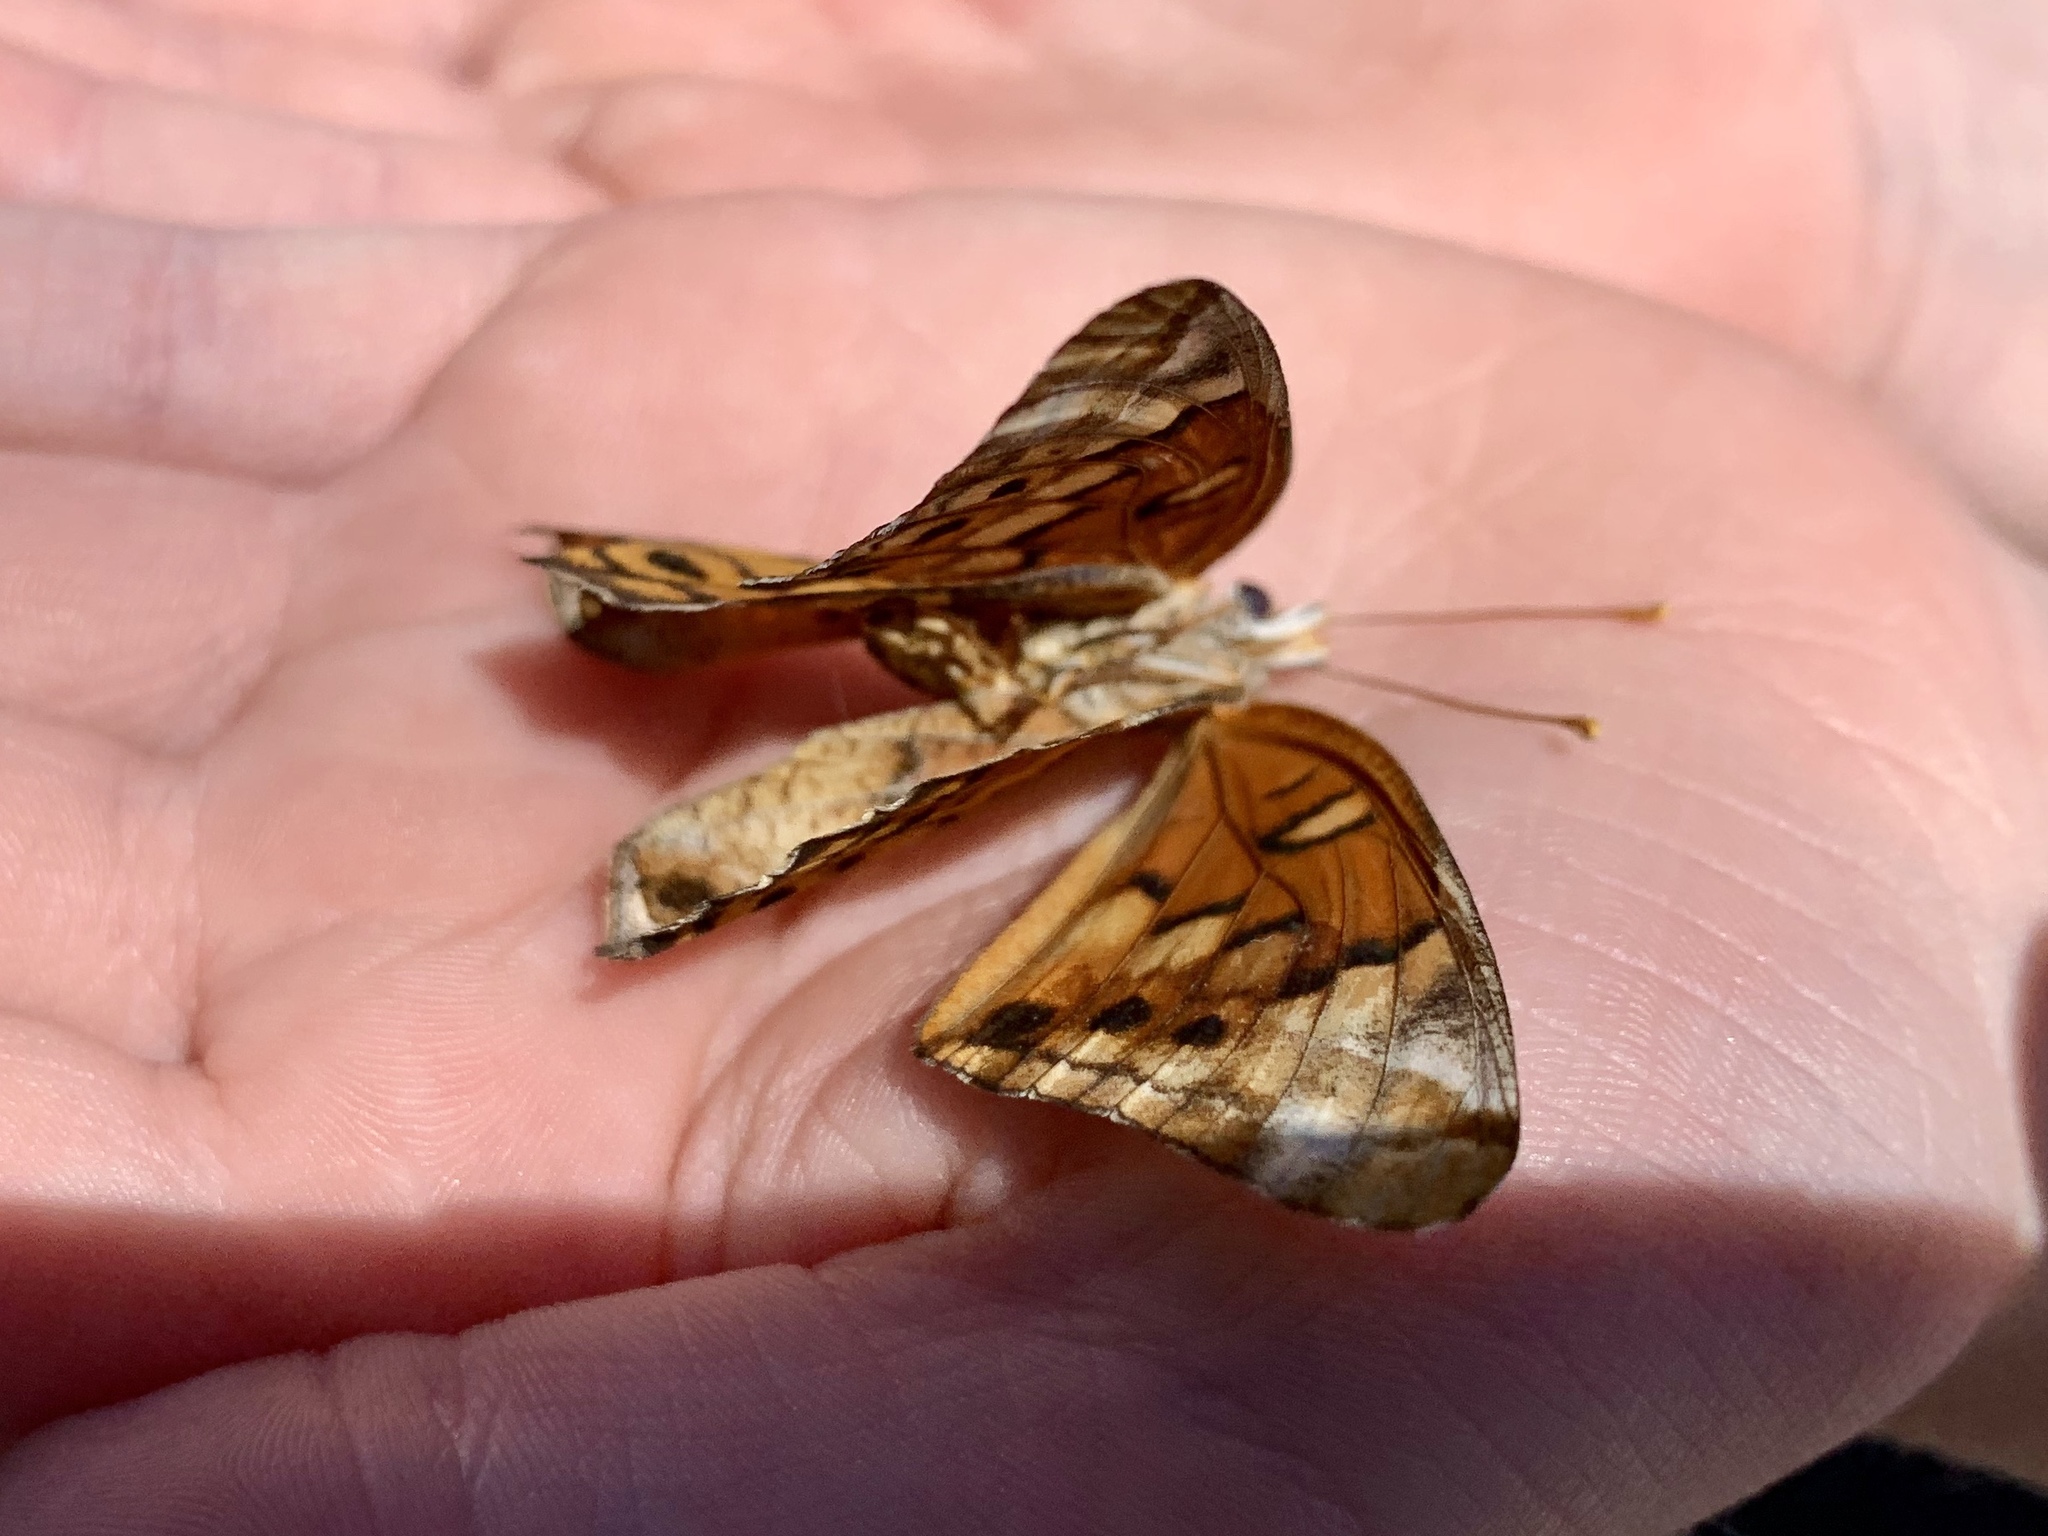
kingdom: Animalia
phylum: Arthropoda
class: Insecta
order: Lepidoptera
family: Nymphalidae
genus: Euptoieta
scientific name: Euptoieta claudia
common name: Variegated fritillary
